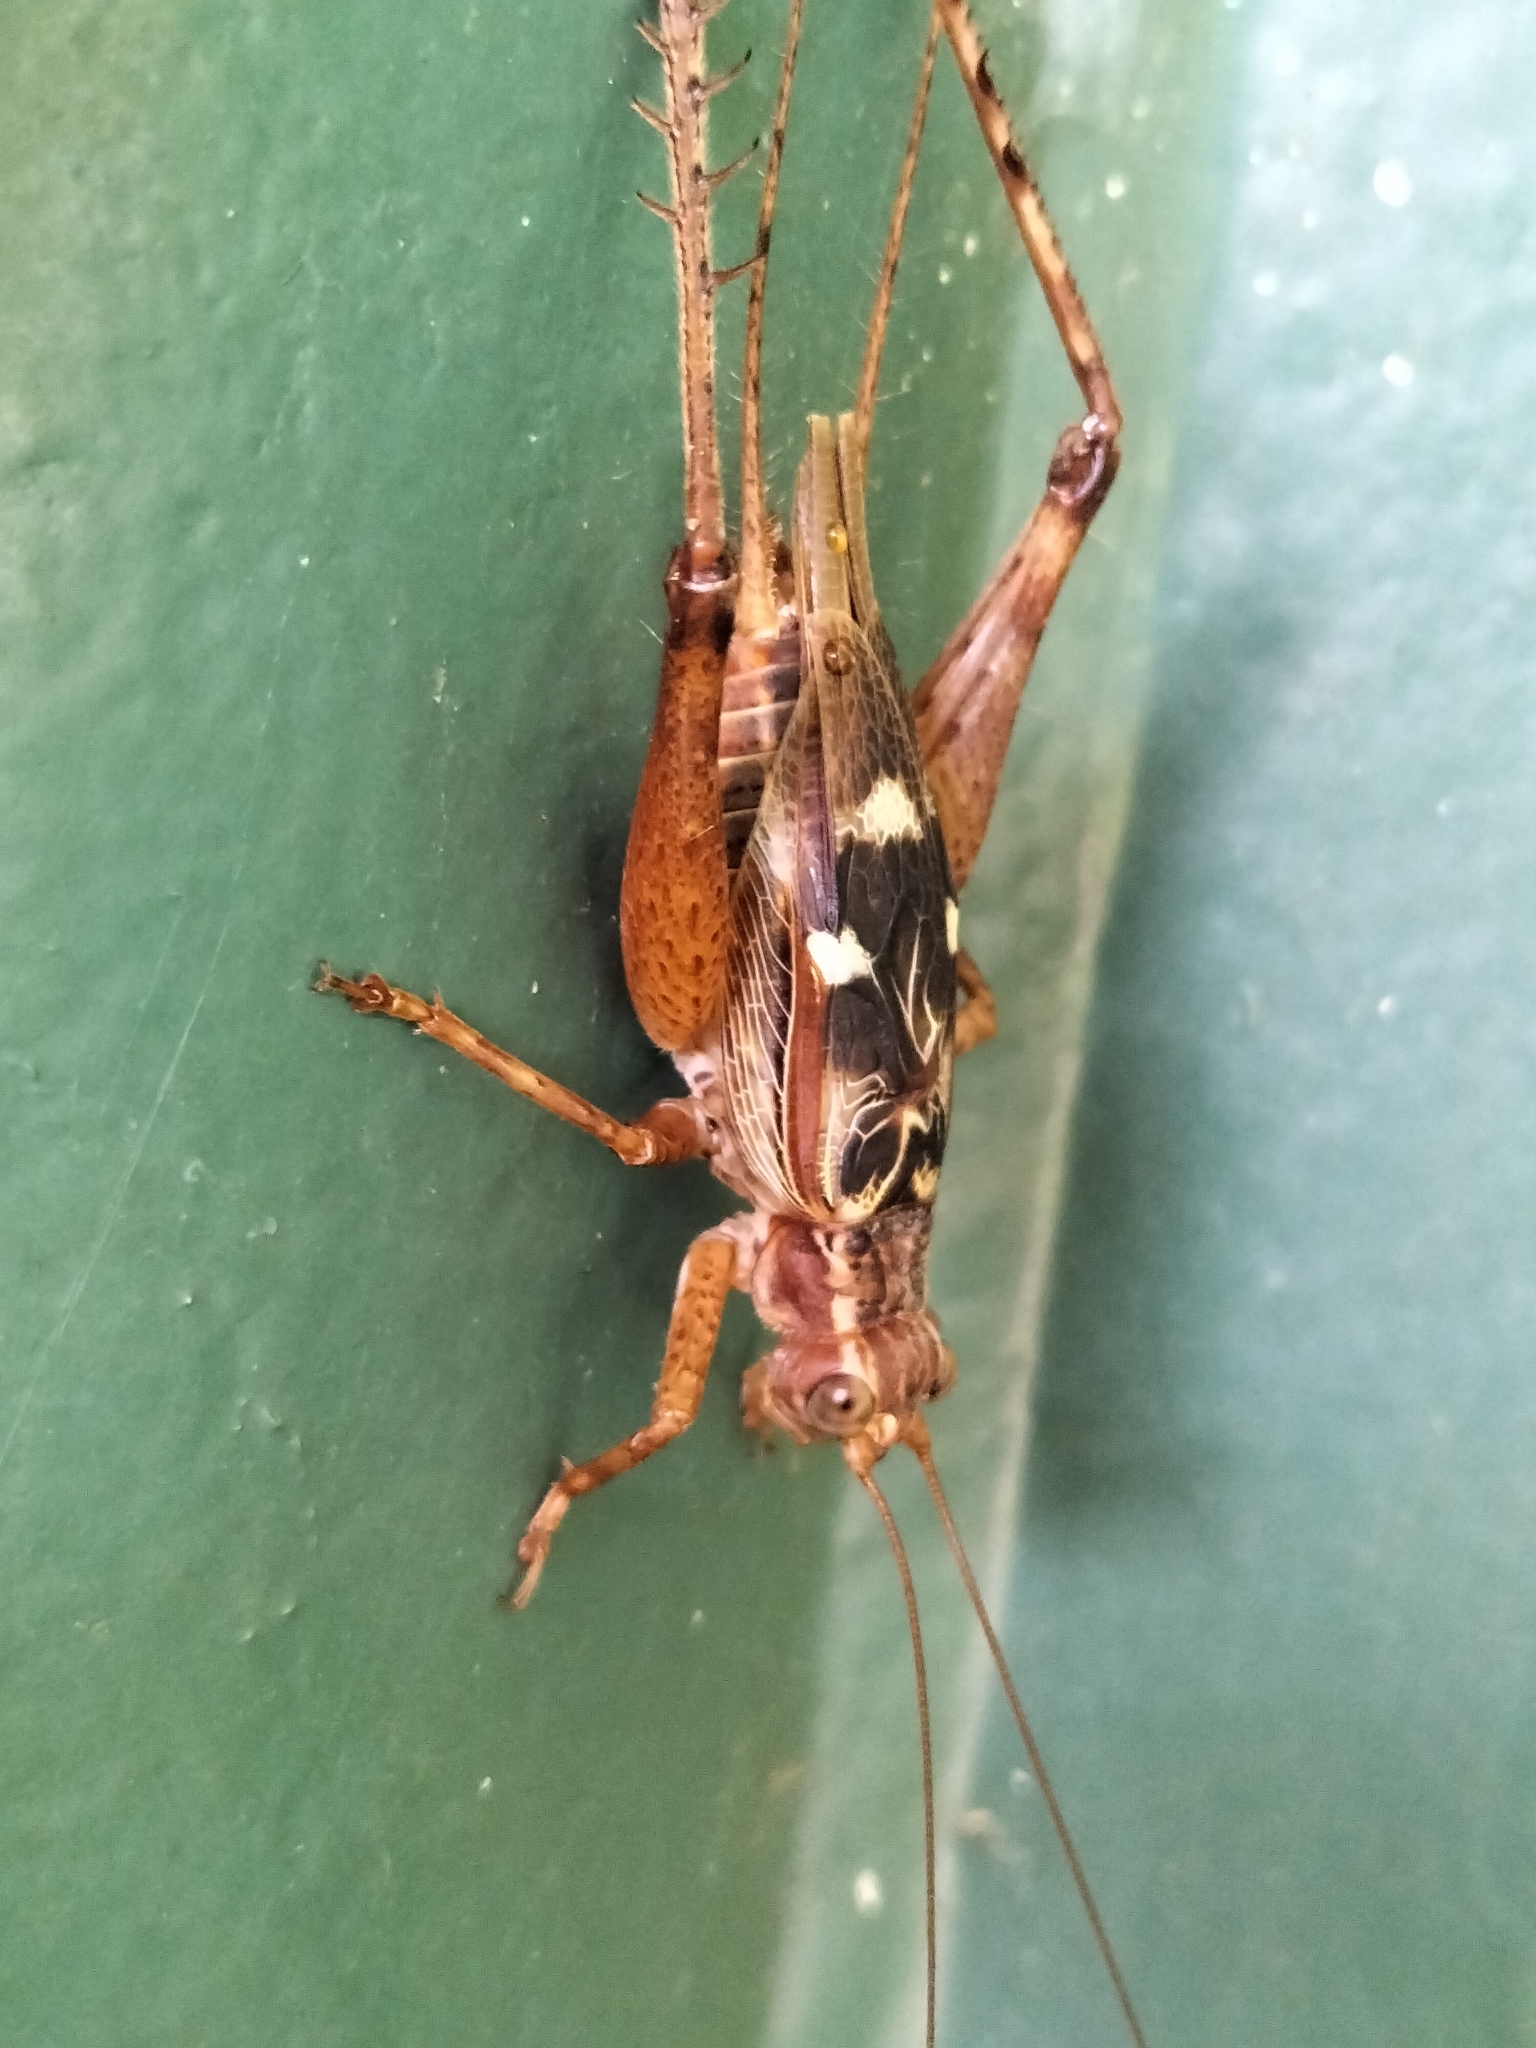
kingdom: Animalia
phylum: Arthropoda
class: Insecta
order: Orthoptera
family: Gryllidae
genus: Cardiodactylus
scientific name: Cardiodactylus novaeguineae
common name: Sad cricket
